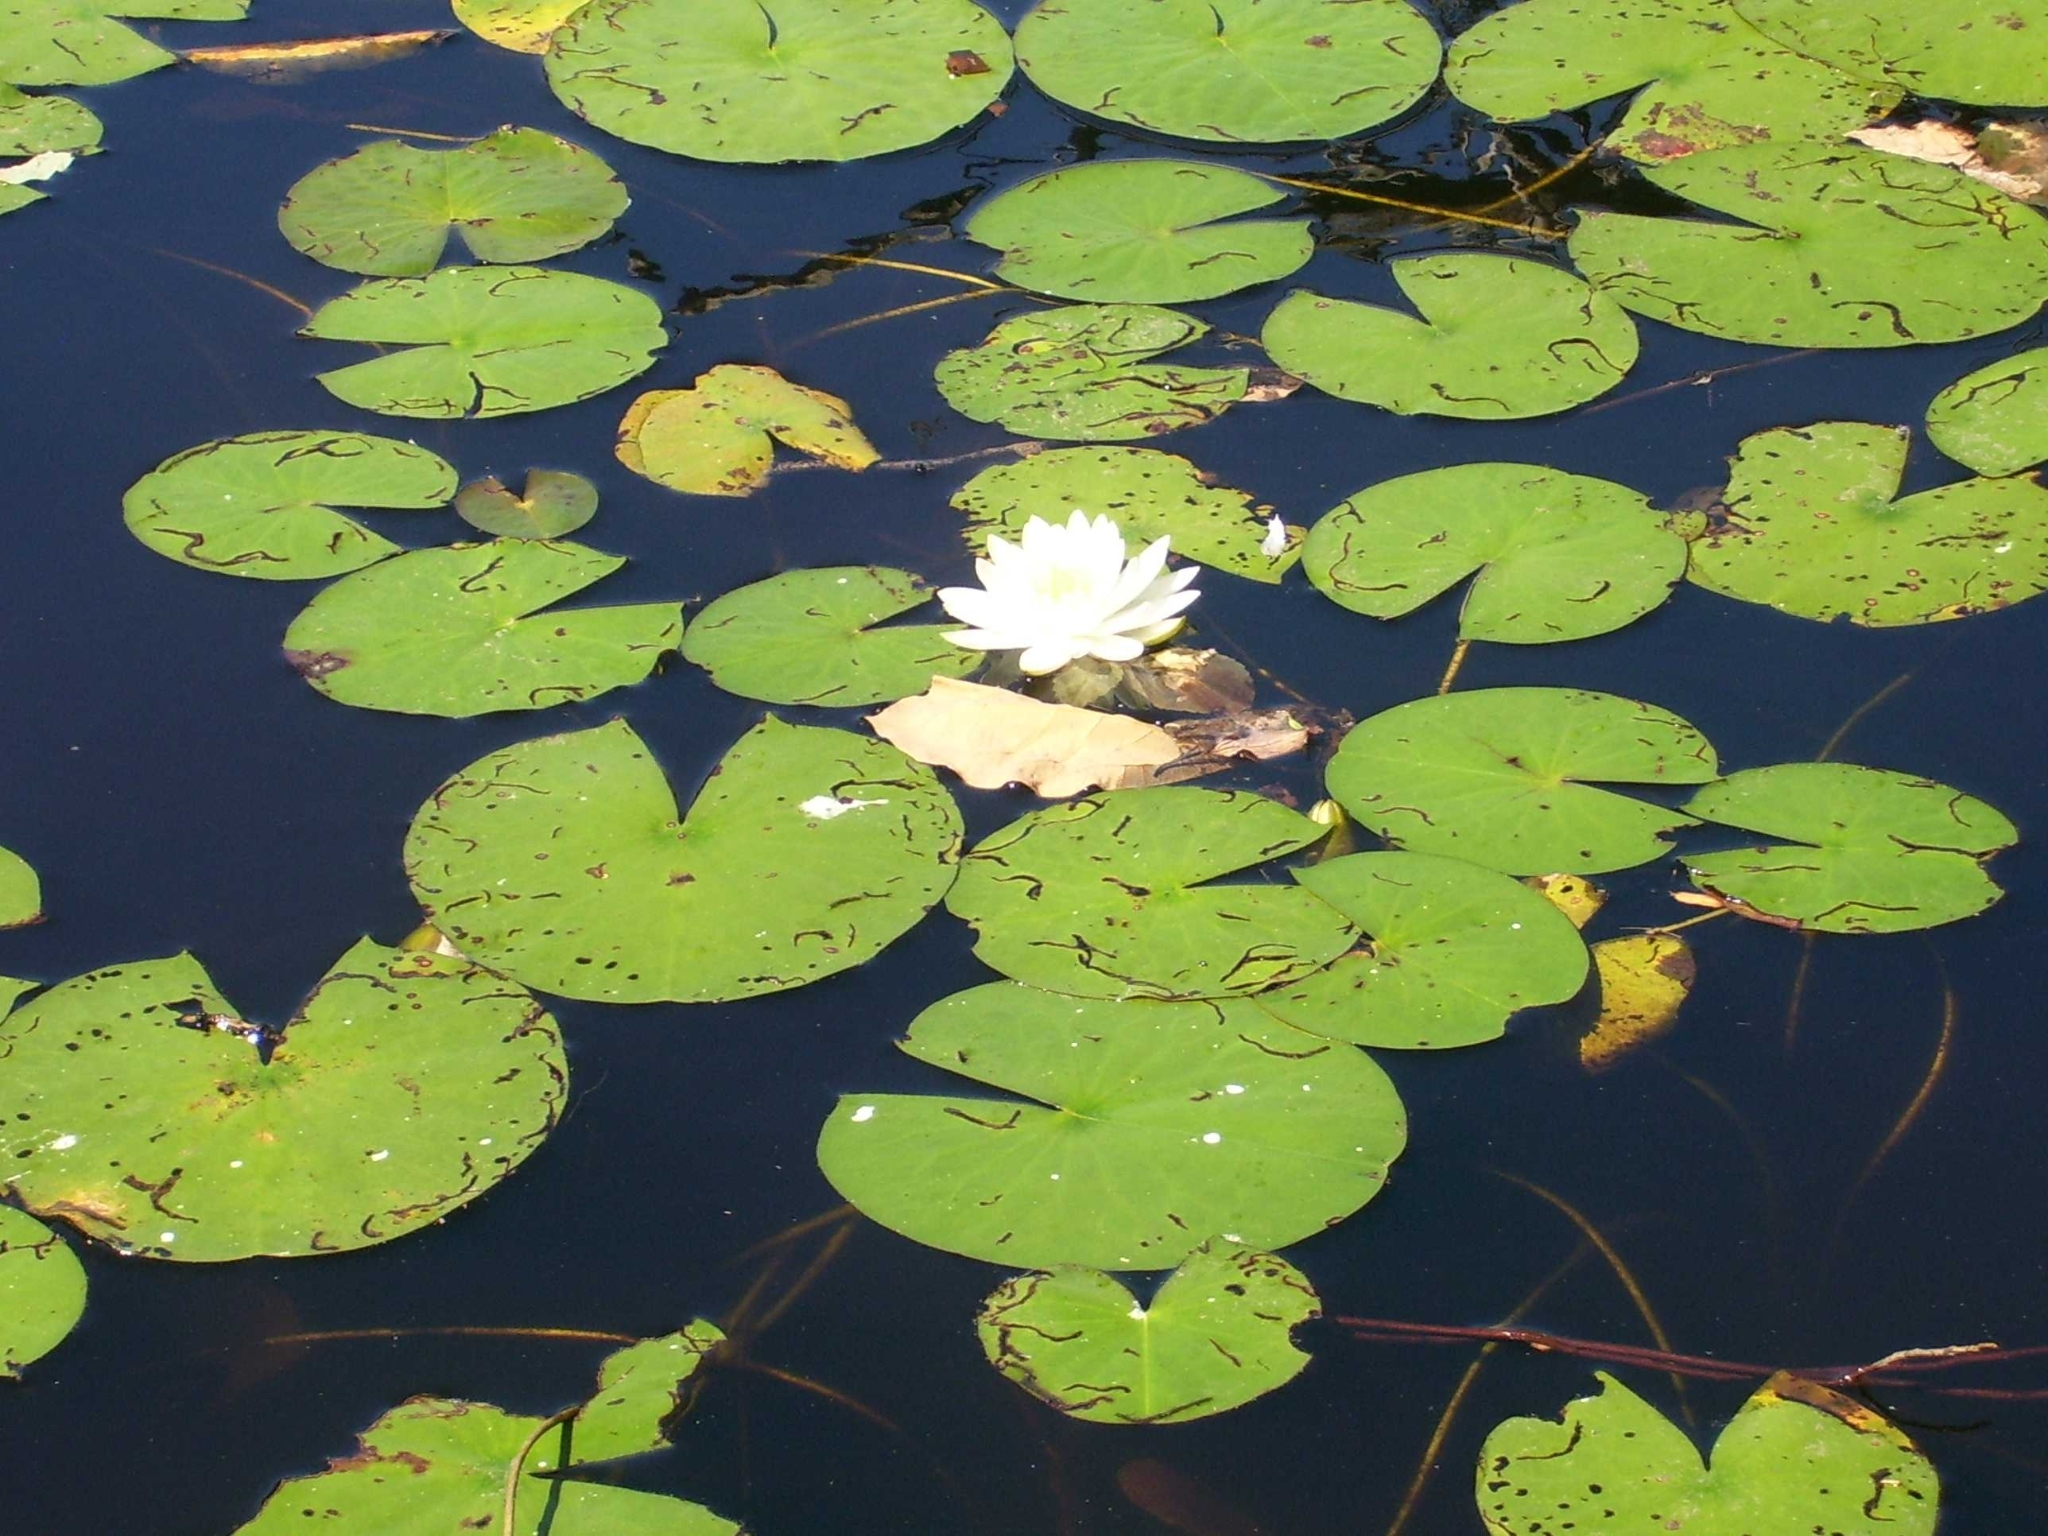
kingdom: Plantae
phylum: Tracheophyta
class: Magnoliopsida
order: Nymphaeales
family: Nymphaeaceae
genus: Nymphaea
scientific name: Nymphaea odorata
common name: Fragrant water-lily
